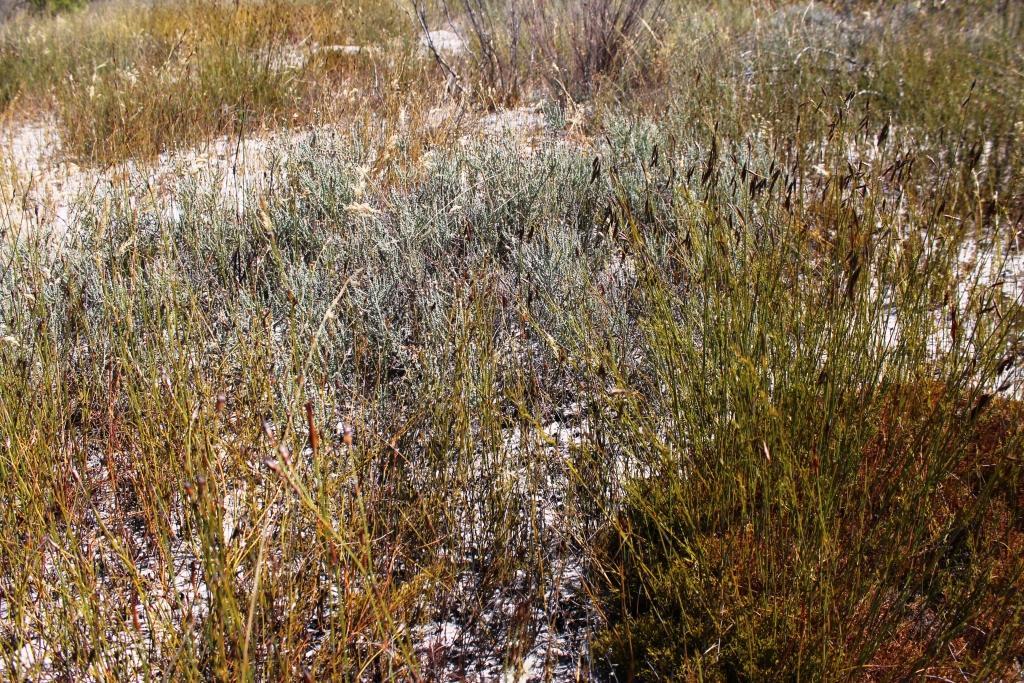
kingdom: Plantae
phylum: Tracheophyta
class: Magnoliopsida
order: Asterales
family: Asteraceae
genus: Lachnospermum
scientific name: Lachnospermum fasciculatum
